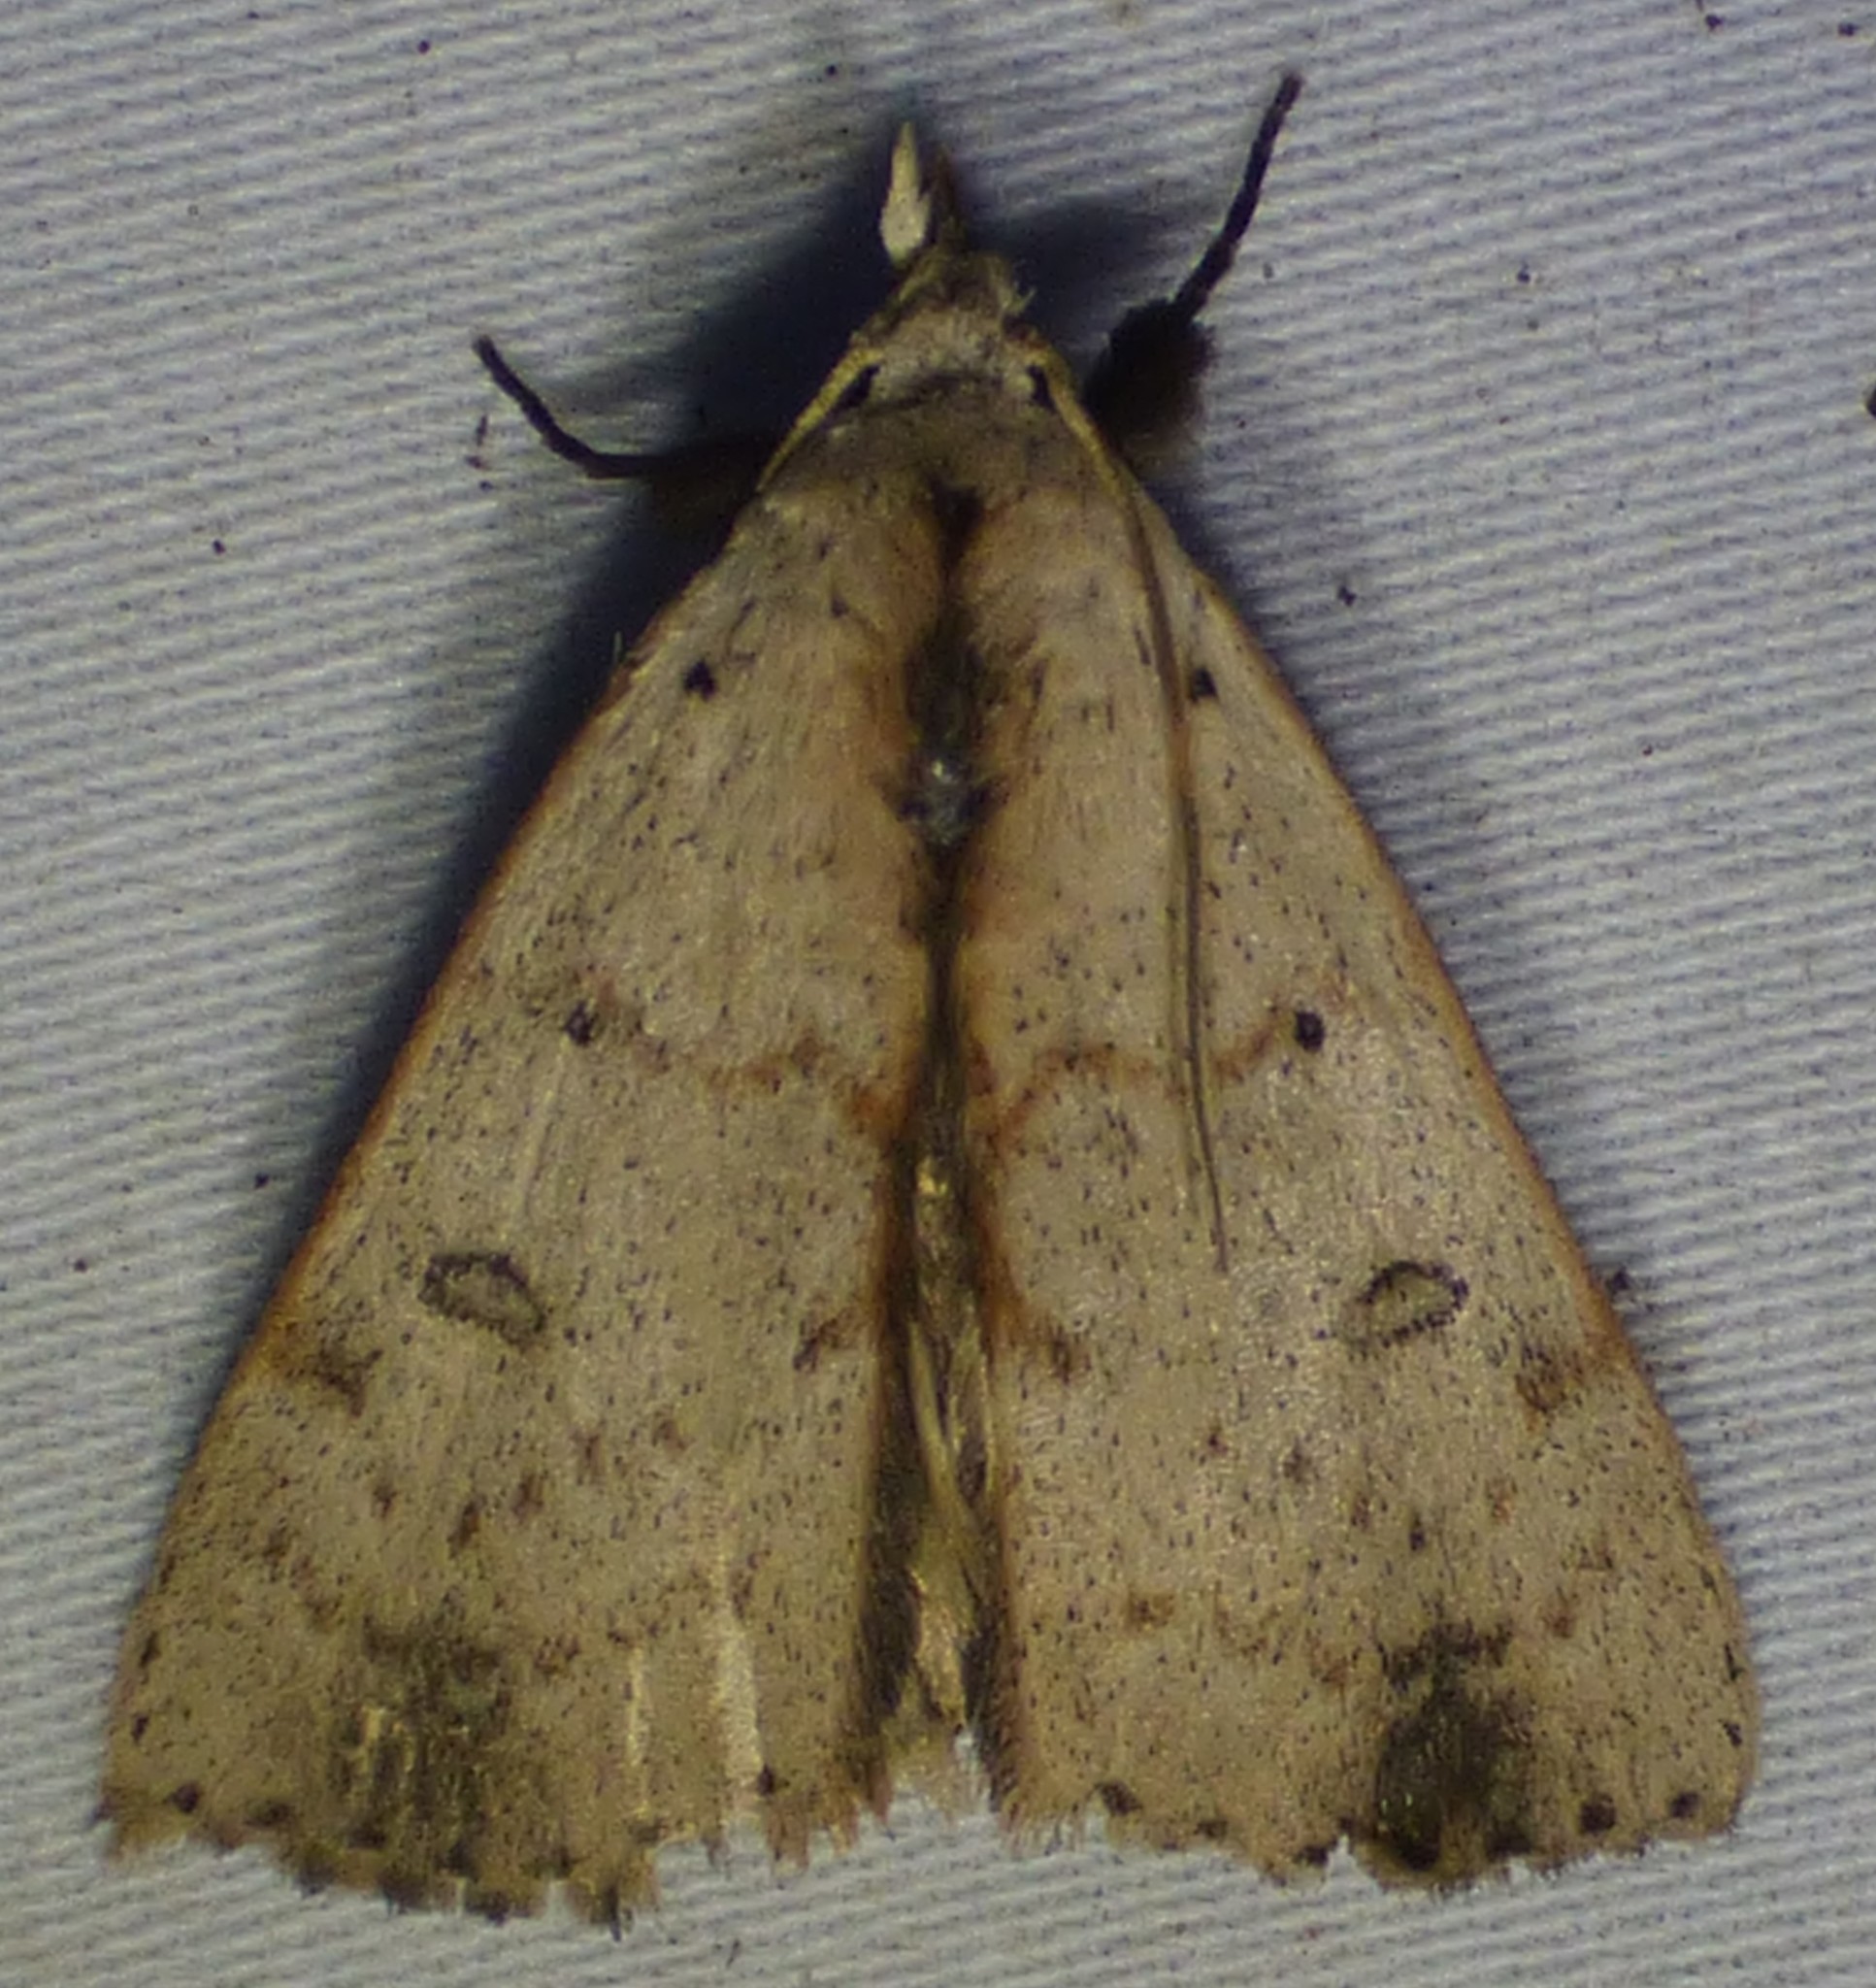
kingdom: Animalia
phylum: Arthropoda
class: Insecta
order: Lepidoptera
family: Erebidae
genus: Scolecocampa
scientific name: Scolecocampa liburna
